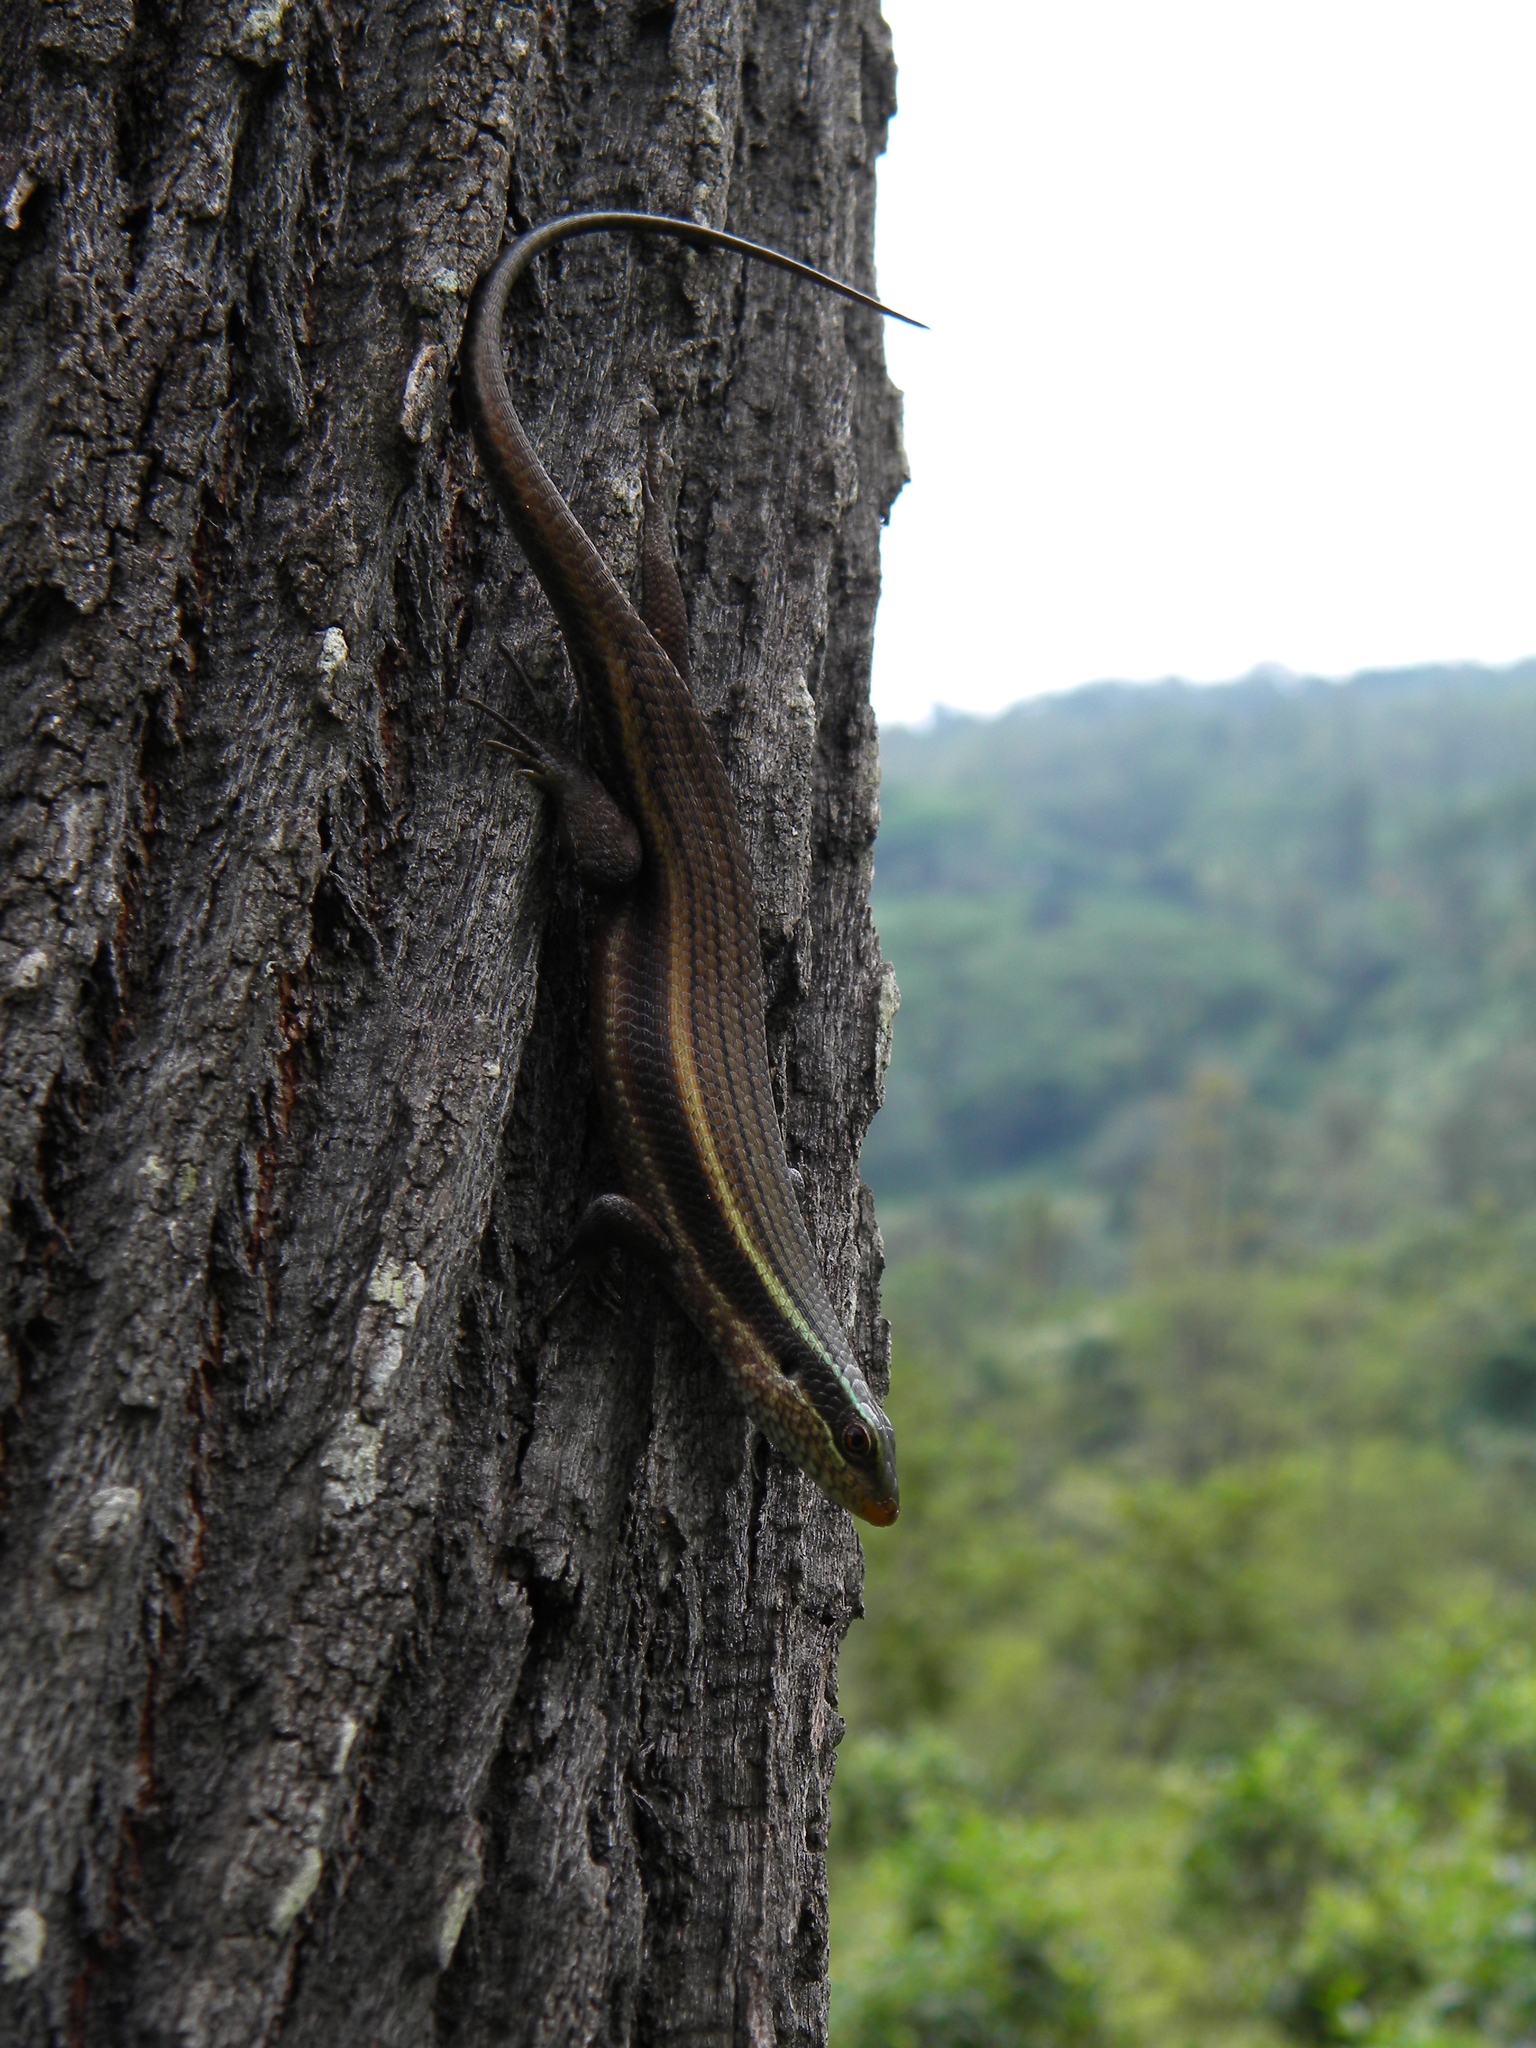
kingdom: Animalia
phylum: Chordata
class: Squamata
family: Scincidae
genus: Eutropis
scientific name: Eutropis carinata
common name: Keeled indian mabuya
